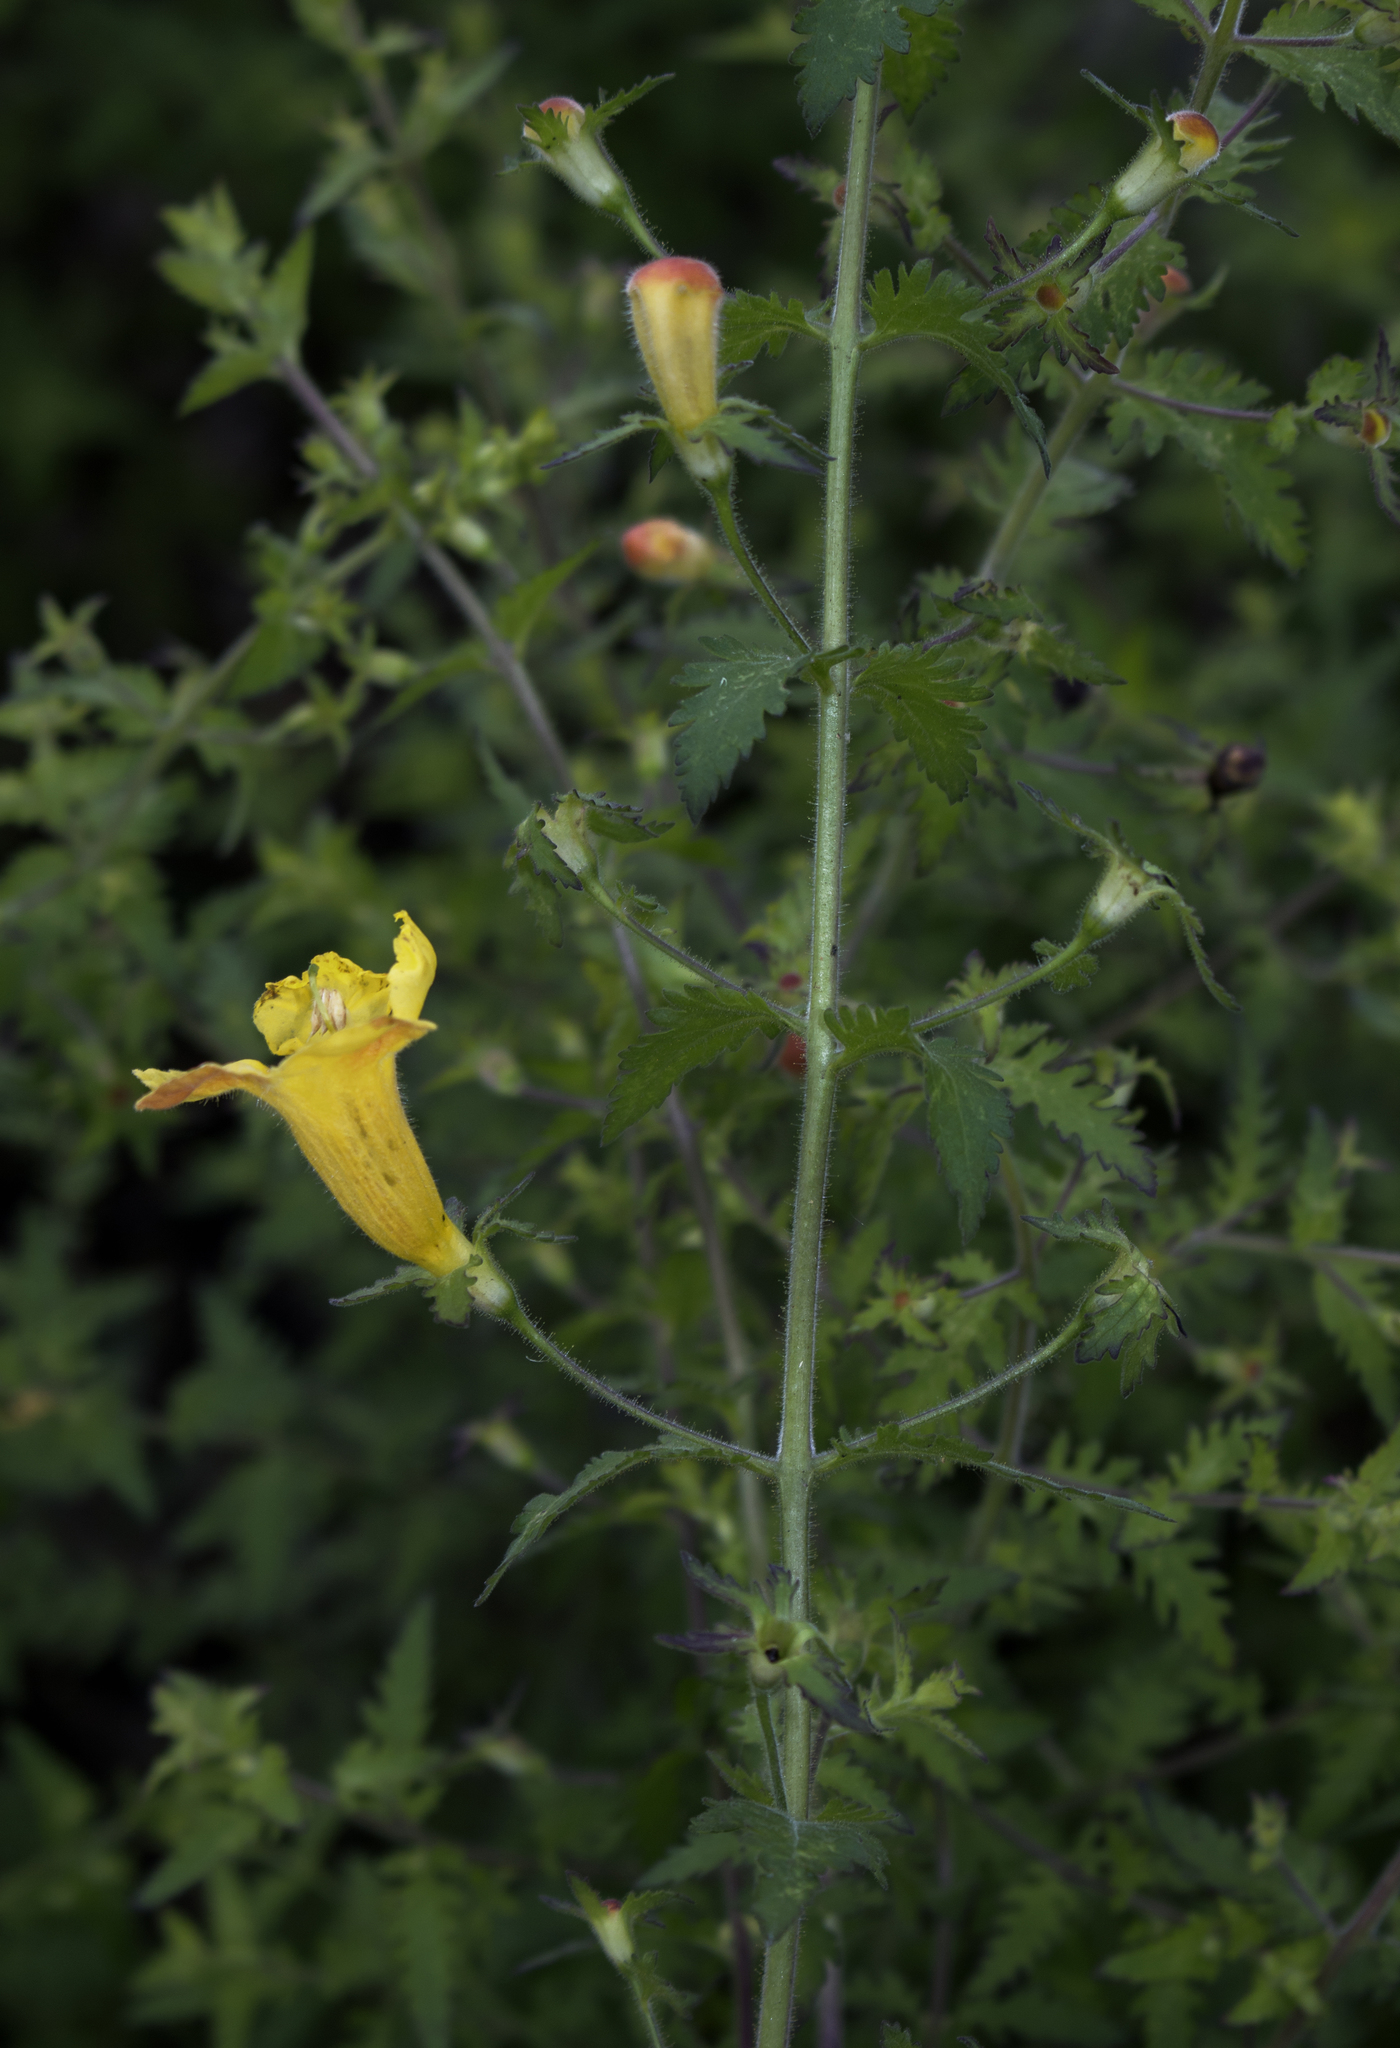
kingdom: Plantae
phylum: Tracheophyta
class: Magnoliopsida
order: Lamiales
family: Orobanchaceae
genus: Aureolaria
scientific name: Aureolaria pedicularia
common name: Annual false foxglove
